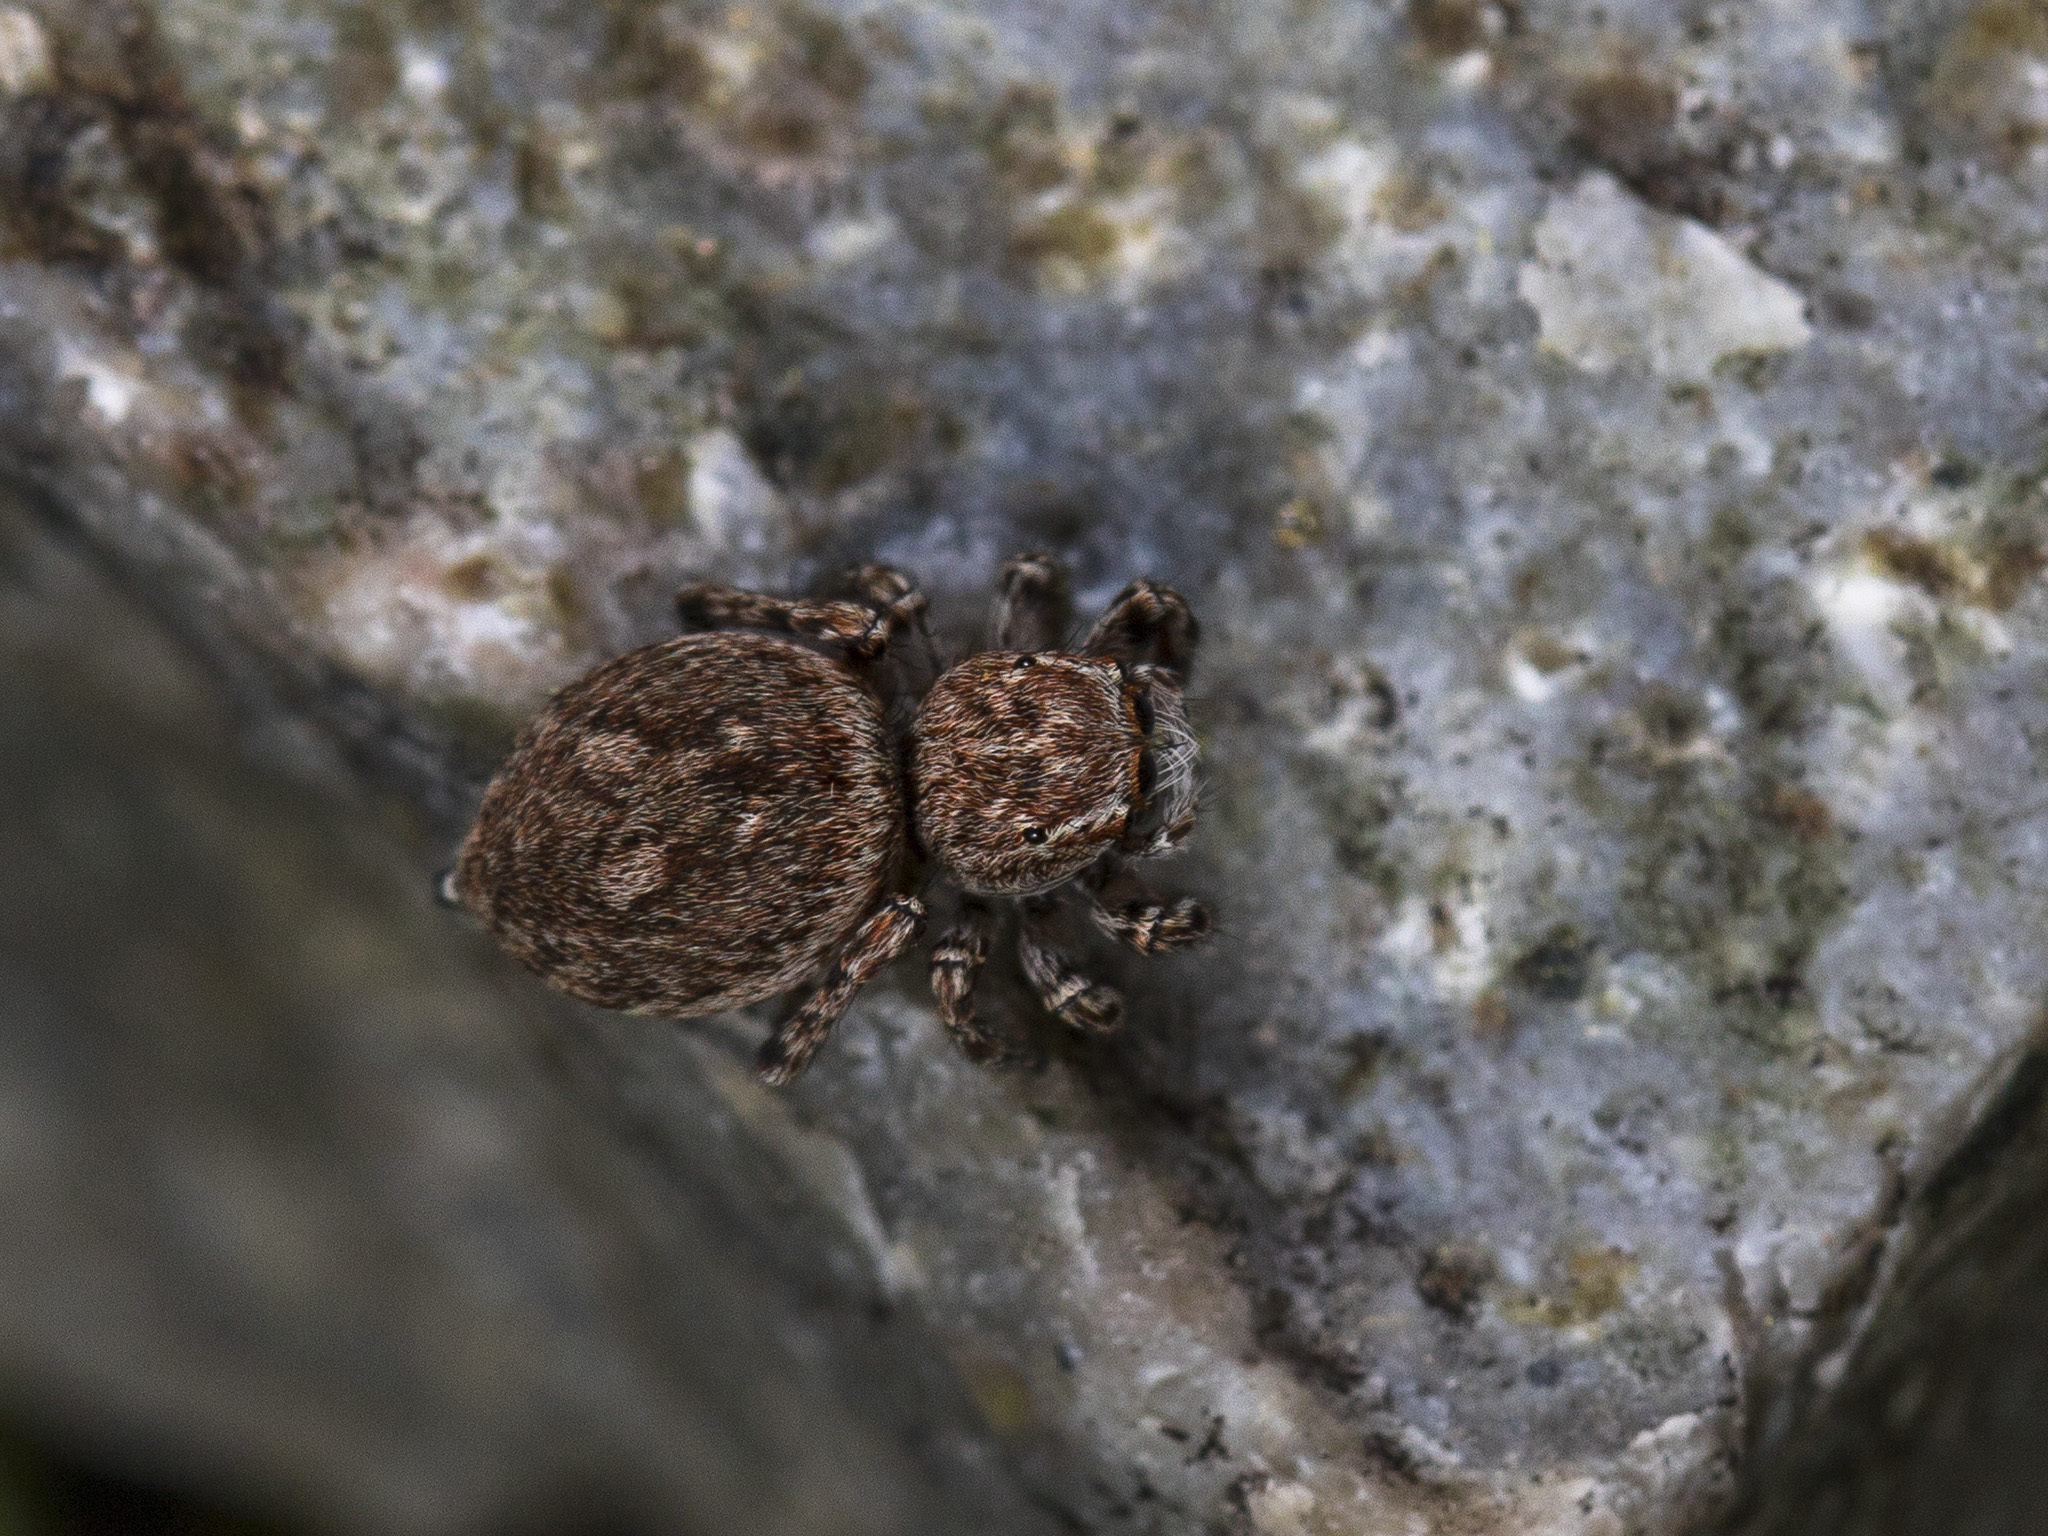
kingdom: Animalia
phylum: Arthropoda
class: Arachnida
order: Araneae
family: Salticidae
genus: Attulus
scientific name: Attulus mirandus
